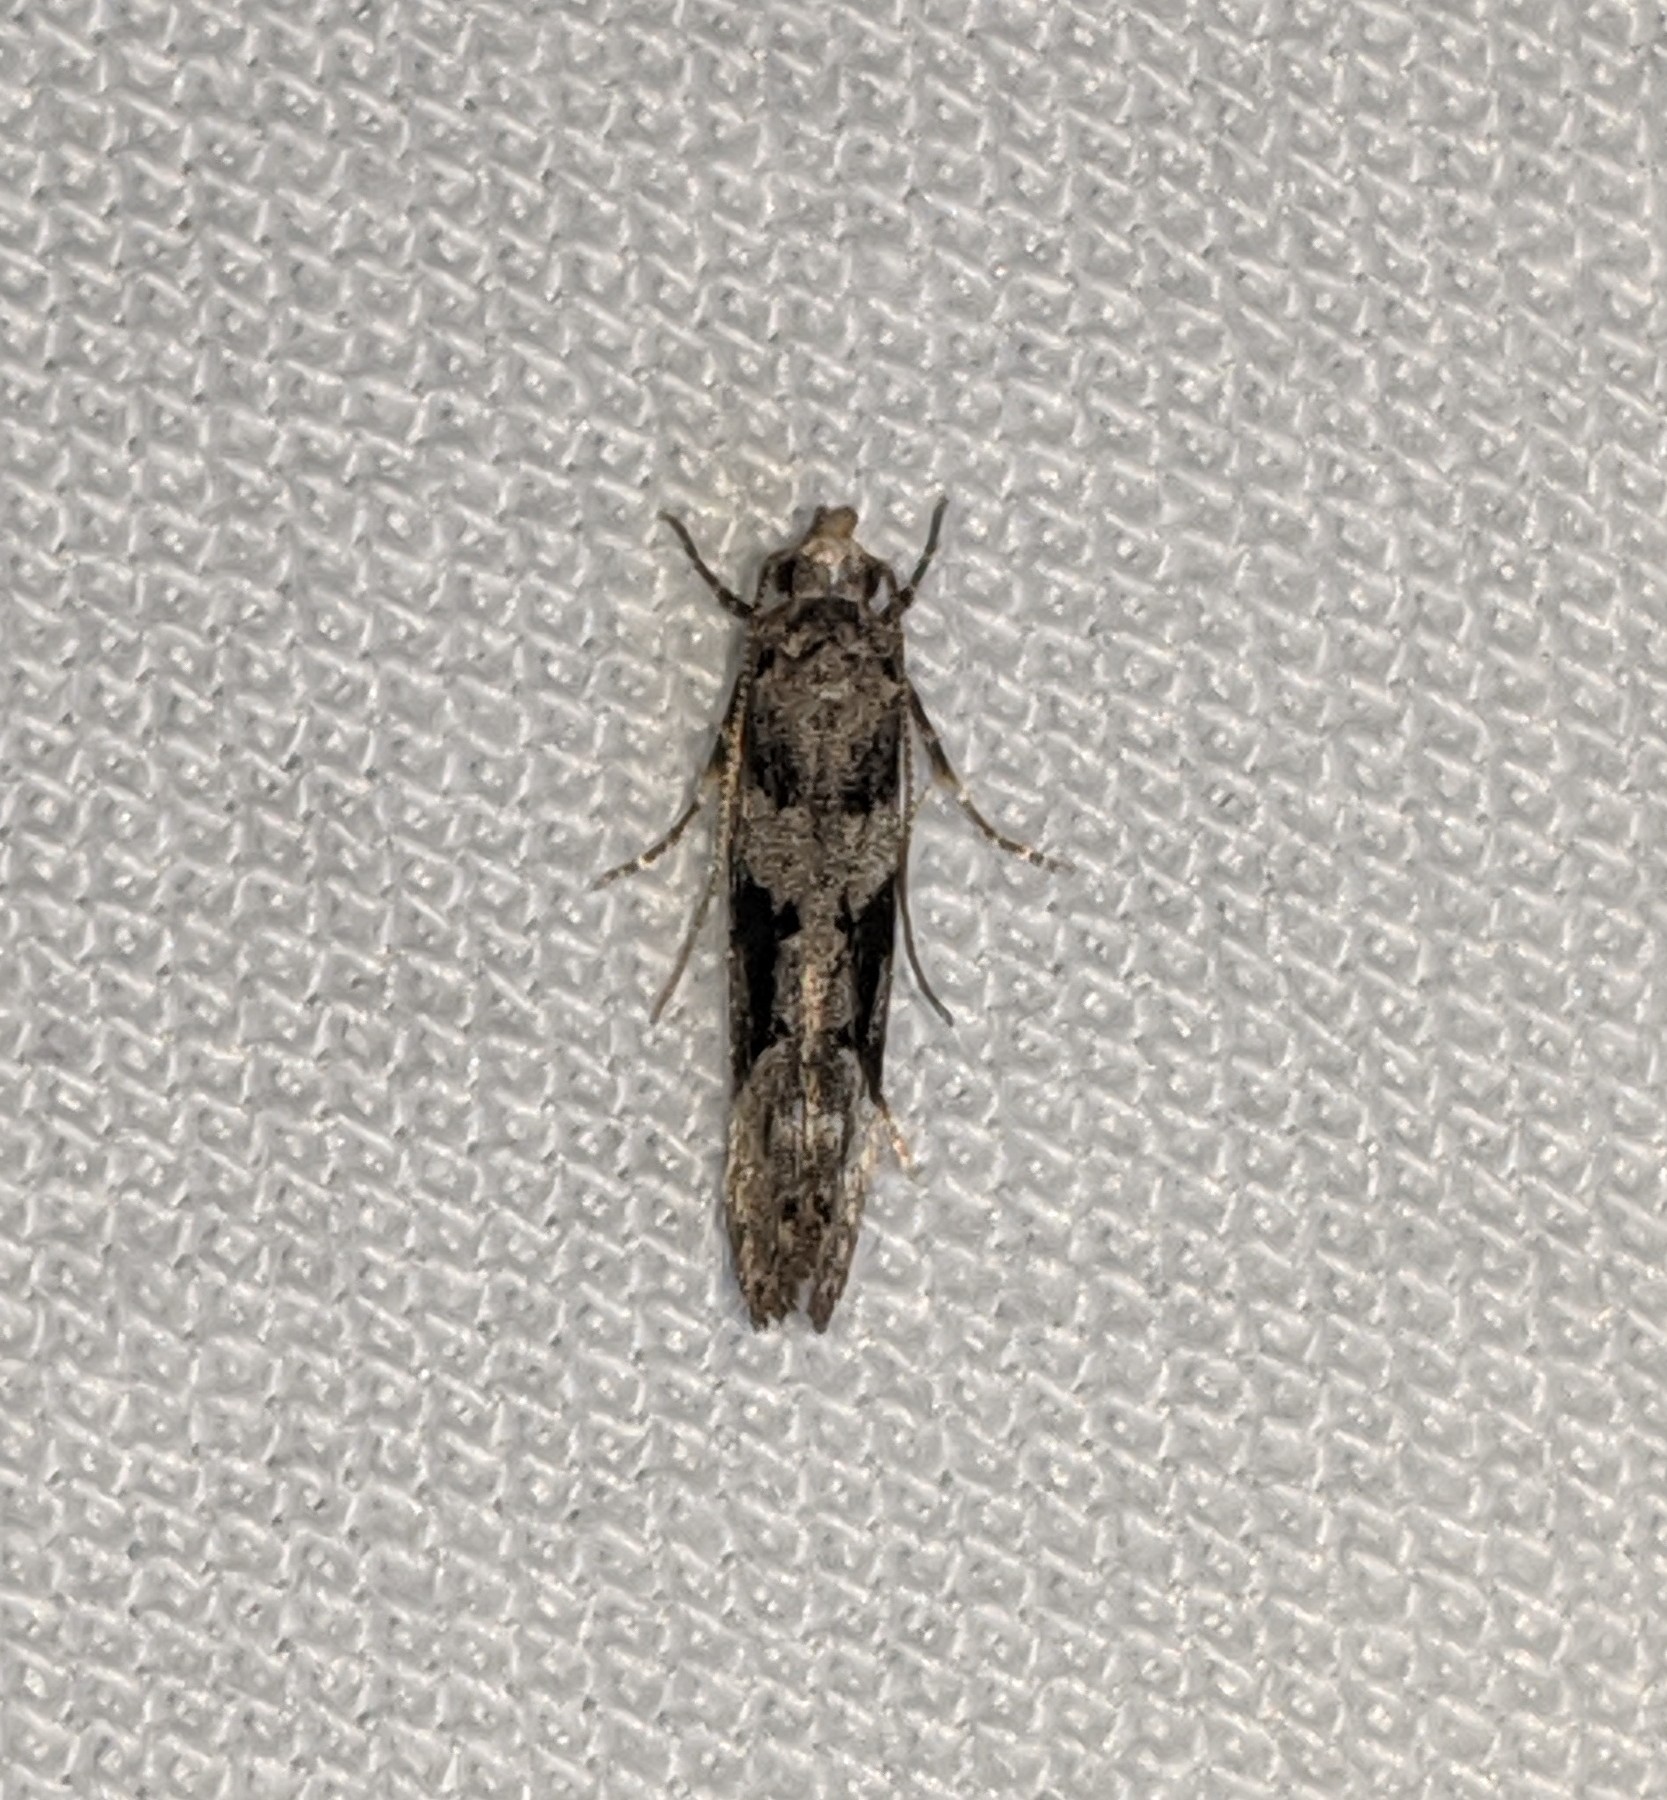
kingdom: Animalia
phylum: Arthropoda
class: Insecta
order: Lepidoptera
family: Gelechiidae
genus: Coleotechnites
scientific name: Coleotechnites atrupictella
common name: Spruce micromoth
